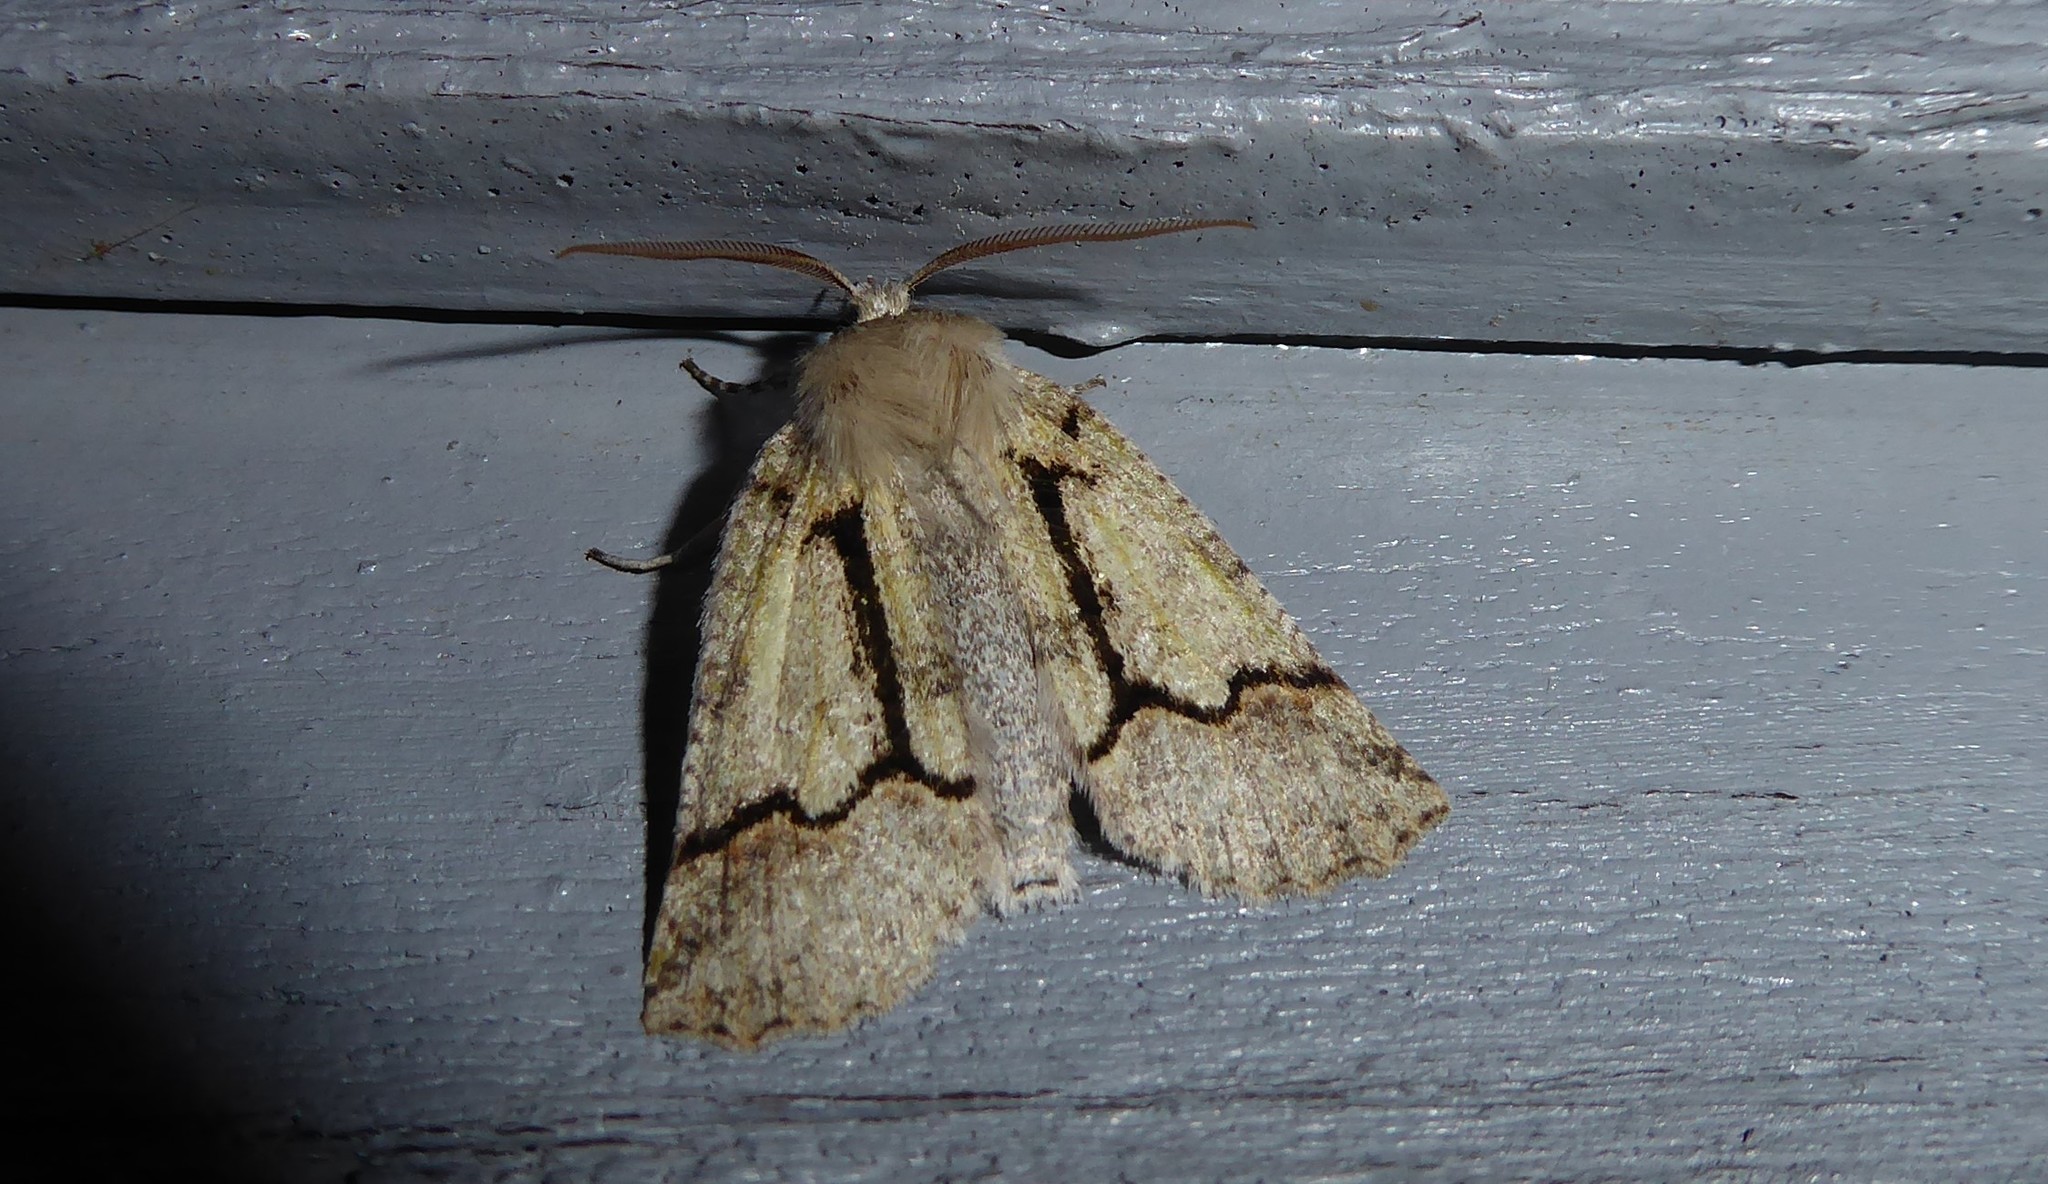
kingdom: Animalia
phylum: Arthropoda
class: Insecta
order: Lepidoptera
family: Geometridae
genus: Declana
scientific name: Declana floccosa
